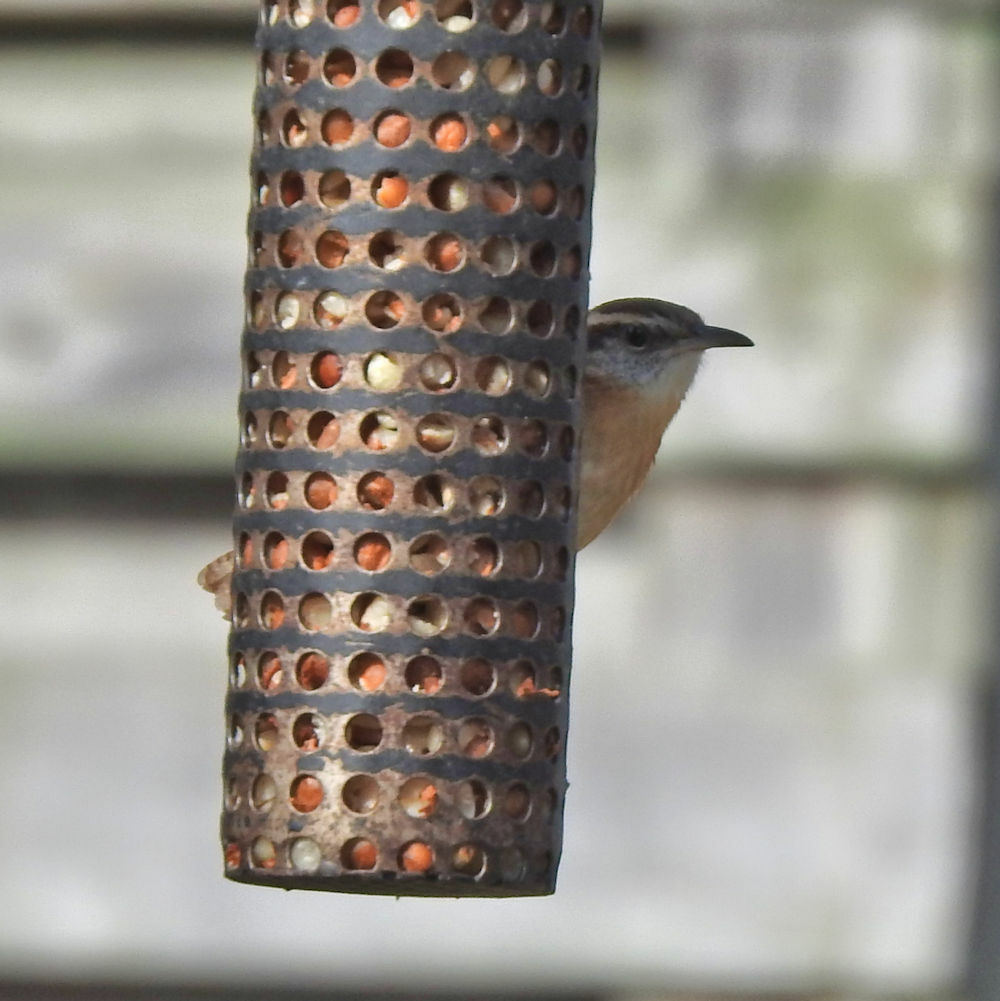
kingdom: Animalia
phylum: Chordata
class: Aves
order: Passeriformes
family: Troglodytidae
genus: Thryothorus
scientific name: Thryothorus ludovicianus
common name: Carolina wren
